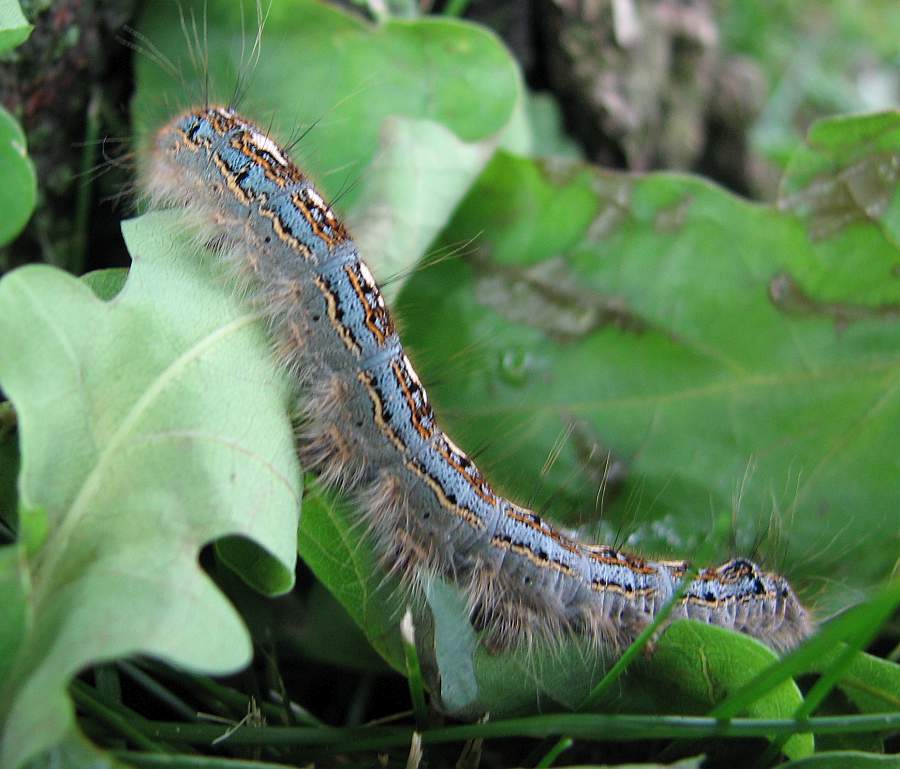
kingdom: Animalia
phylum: Arthropoda
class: Insecta
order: Lepidoptera
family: Lasiocampidae
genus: Malacosoma
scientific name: Malacosoma disstria
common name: Forest tent caterpillar
